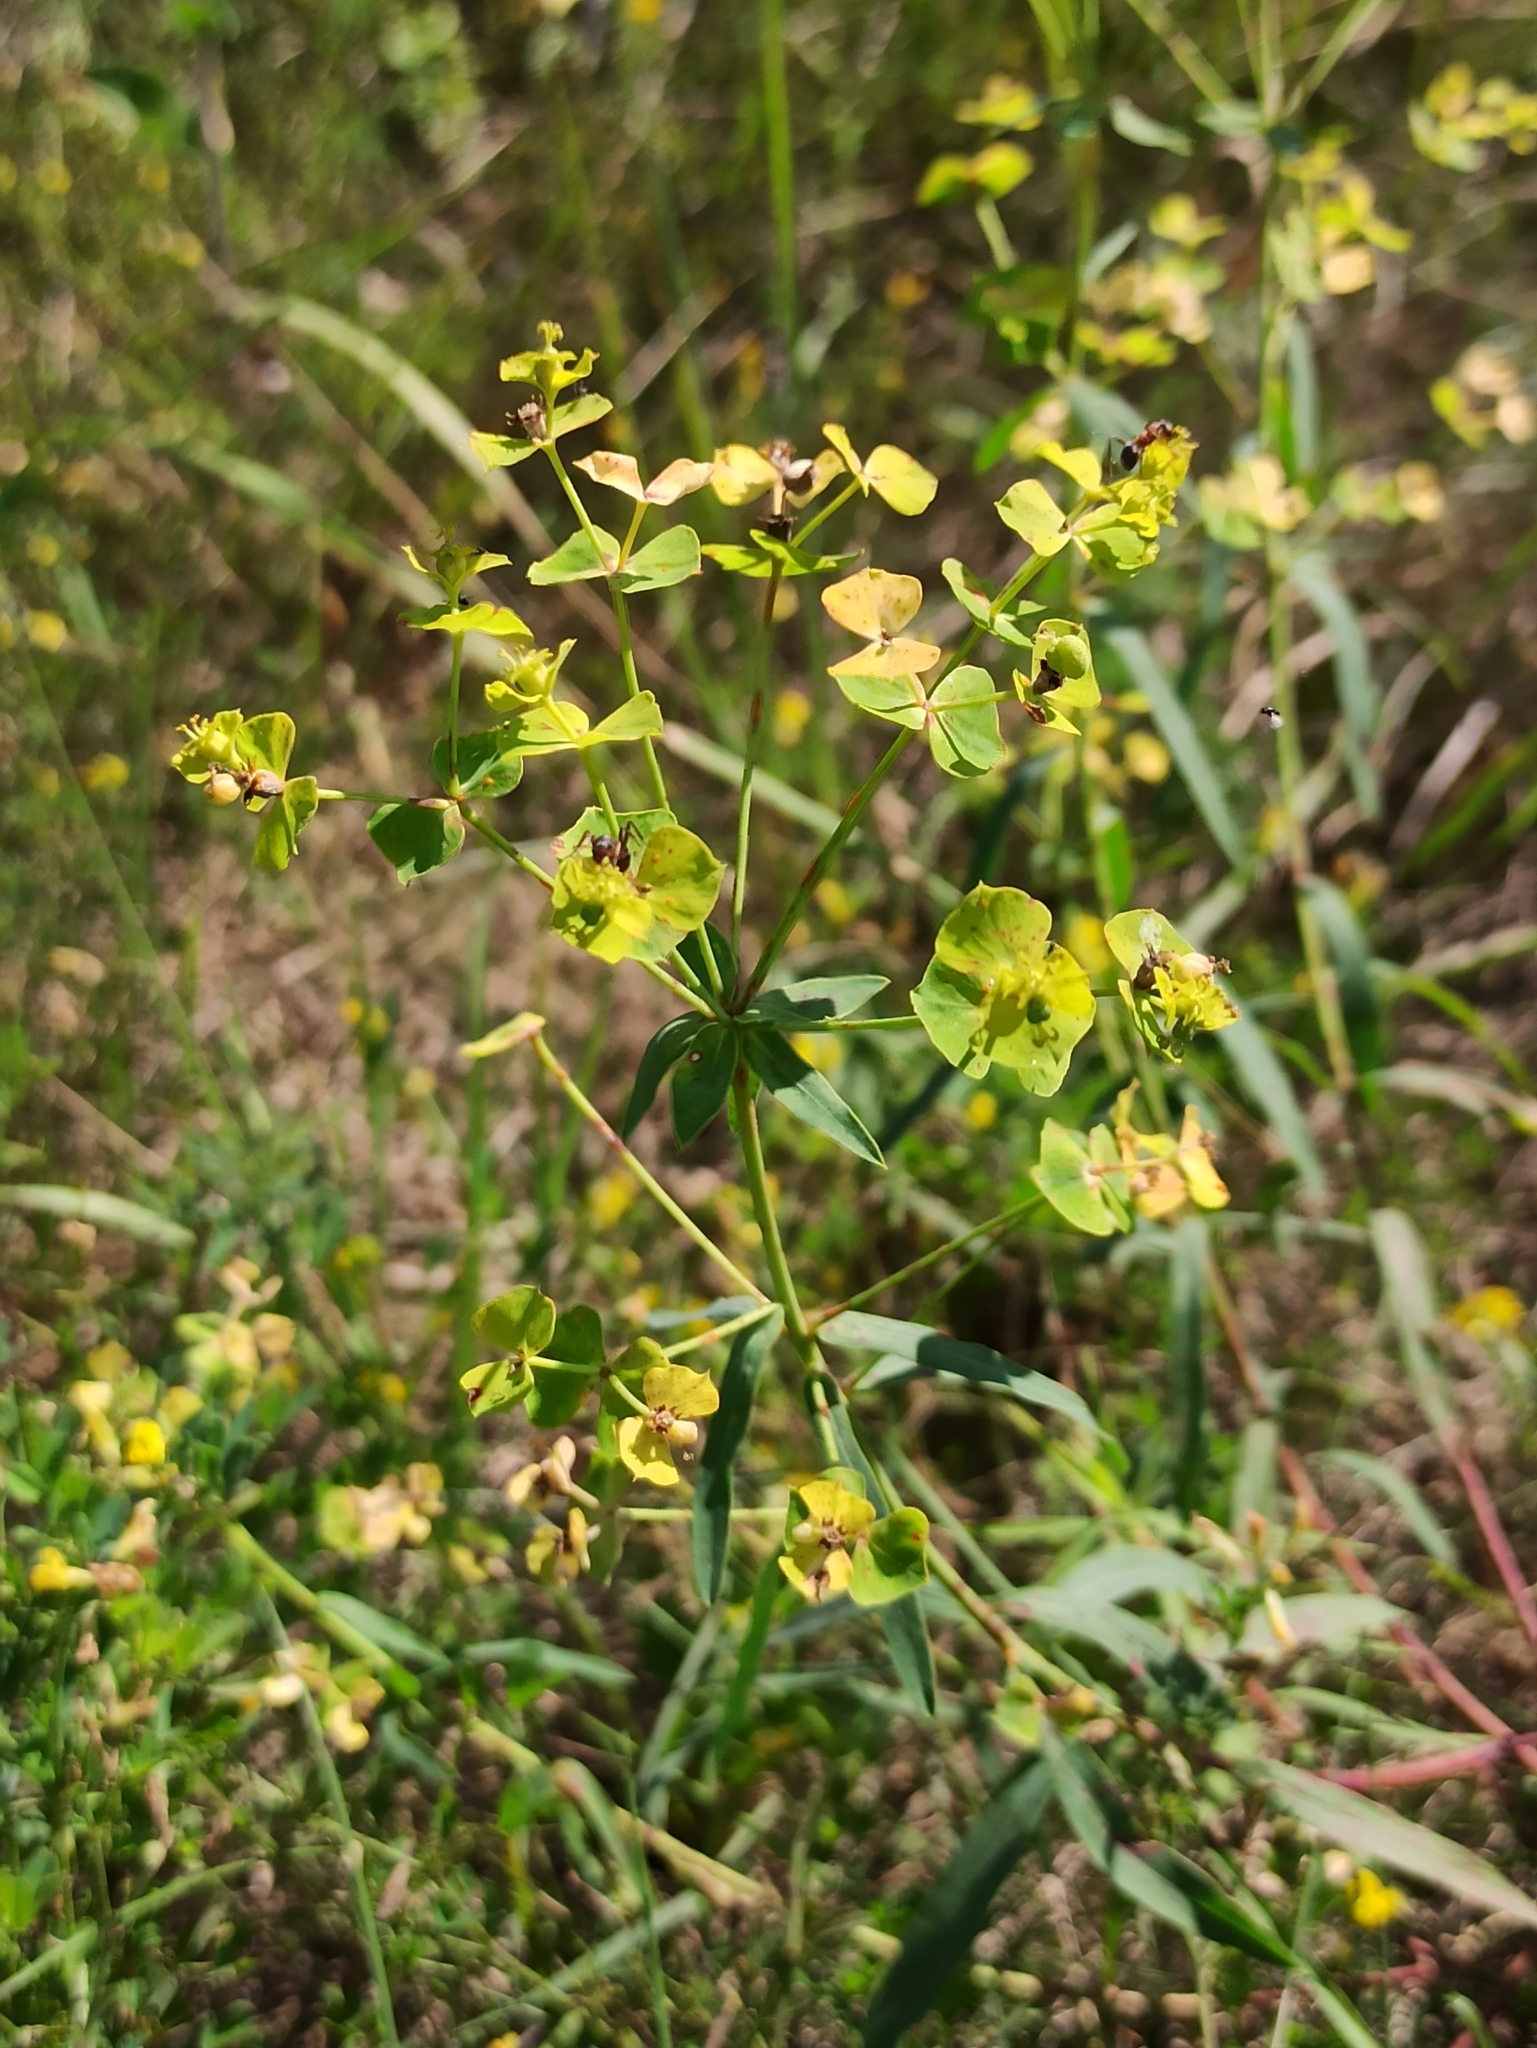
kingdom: Plantae
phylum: Tracheophyta
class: Magnoliopsida
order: Malpighiales
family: Euphorbiaceae
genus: Euphorbia
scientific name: Euphorbia virgata
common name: Leafy spurge
